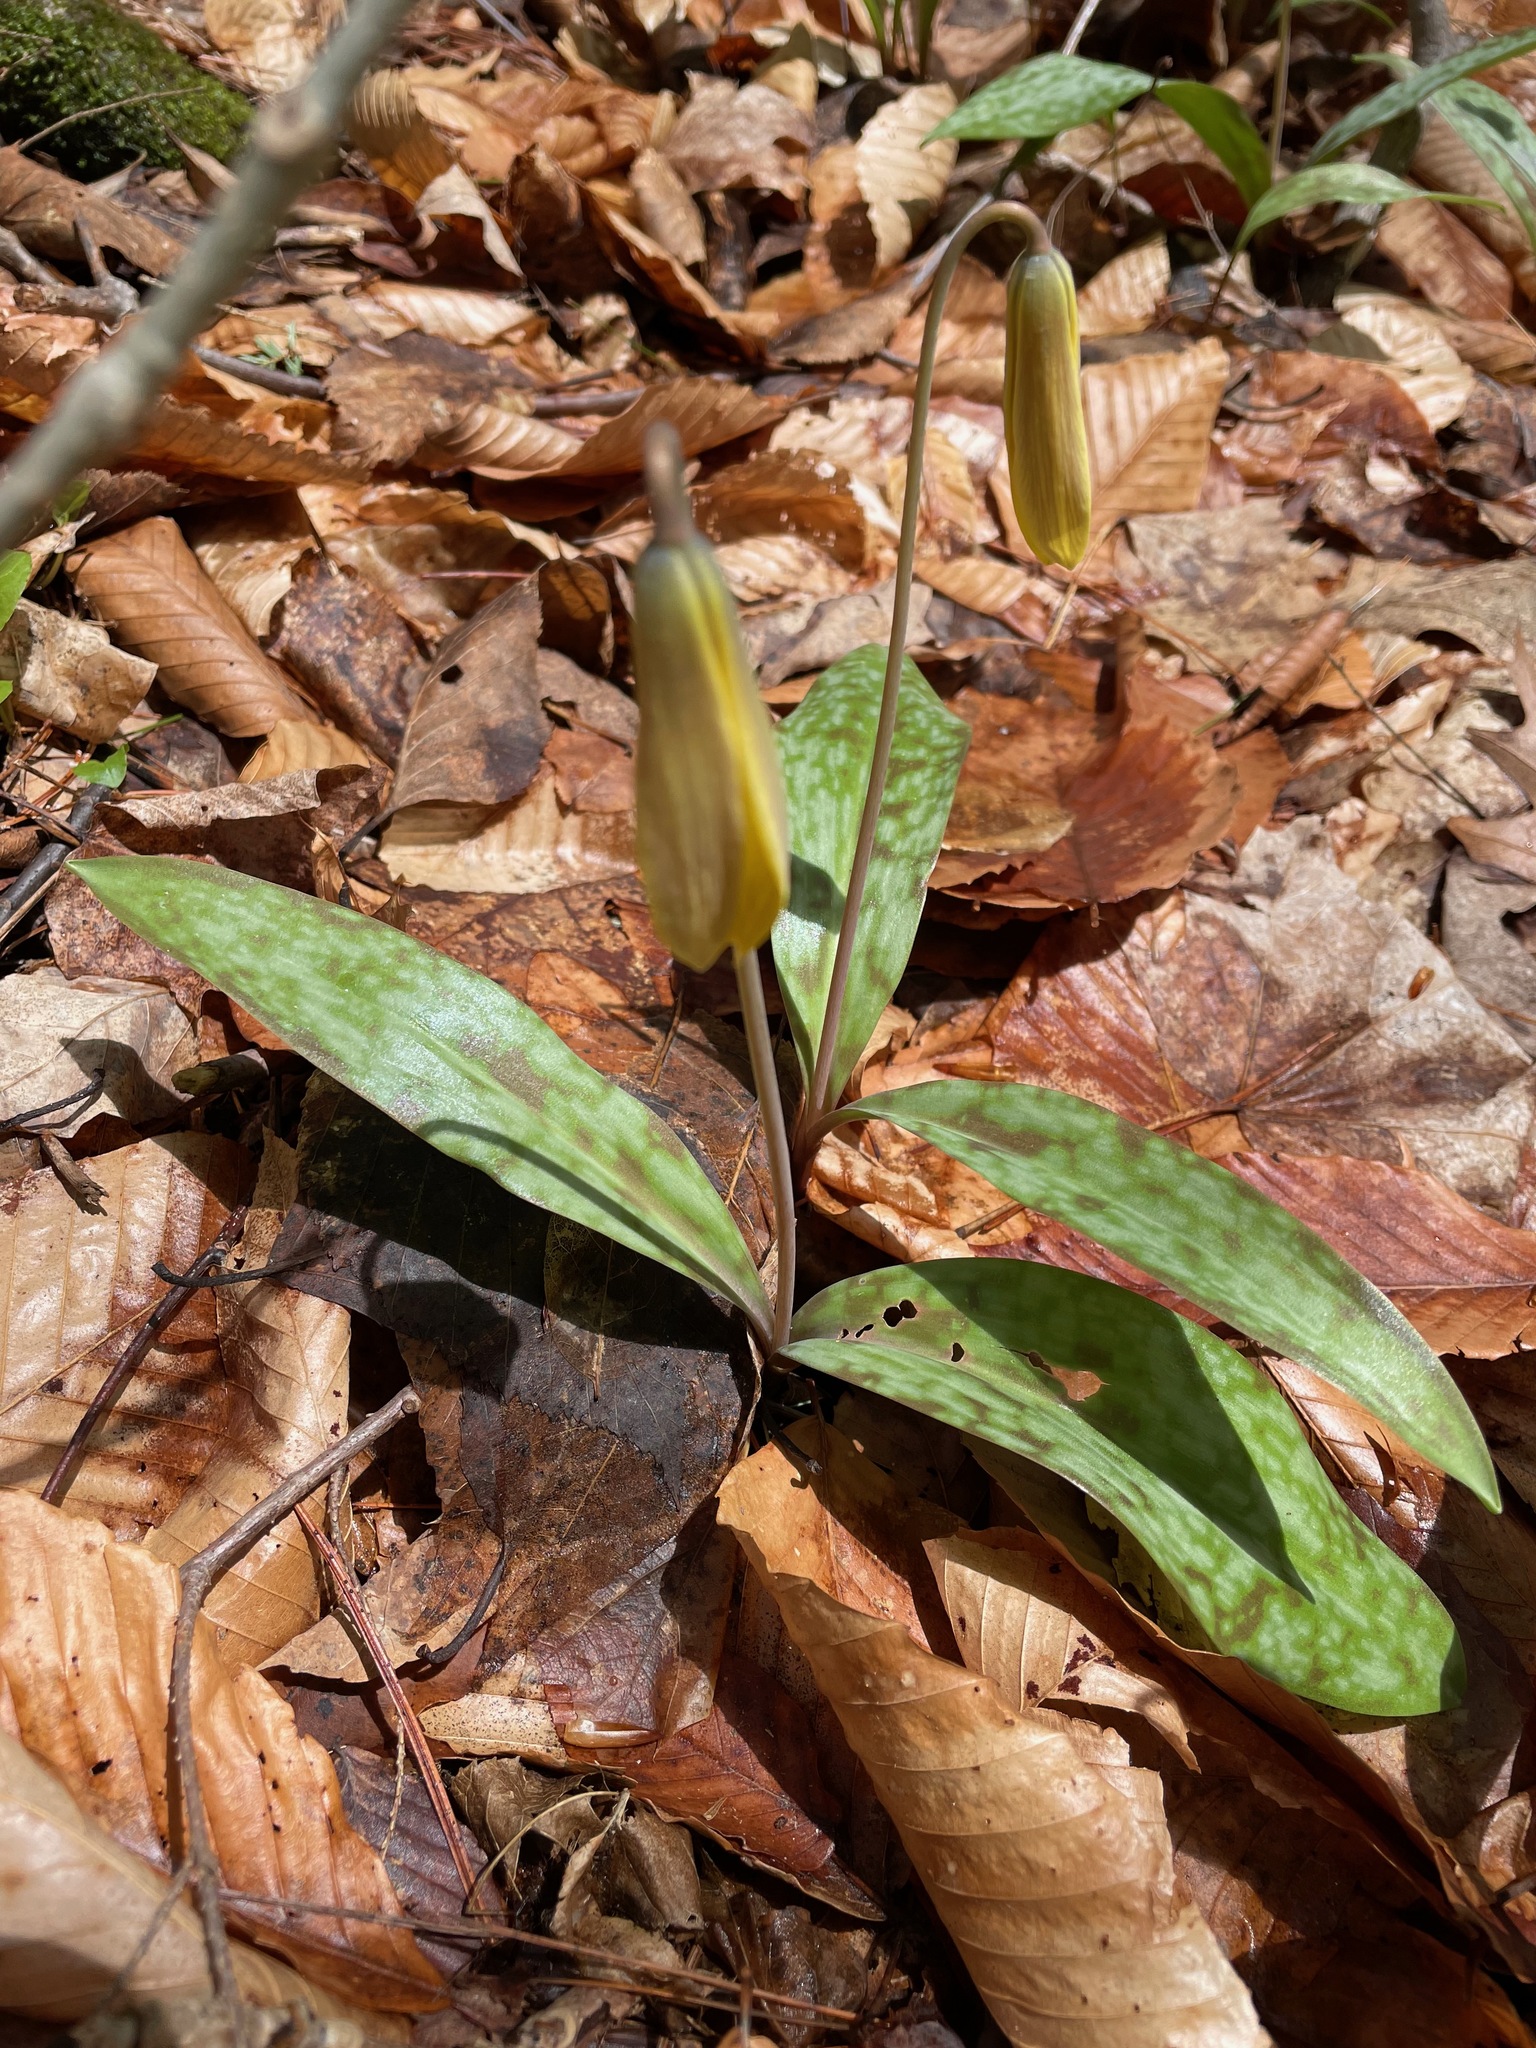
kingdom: Plantae
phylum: Tracheophyta
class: Liliopsida
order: Liliales
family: Liliaceae
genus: Erythronium
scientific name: Erythronium americanum
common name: Yellow adder's-tongue
